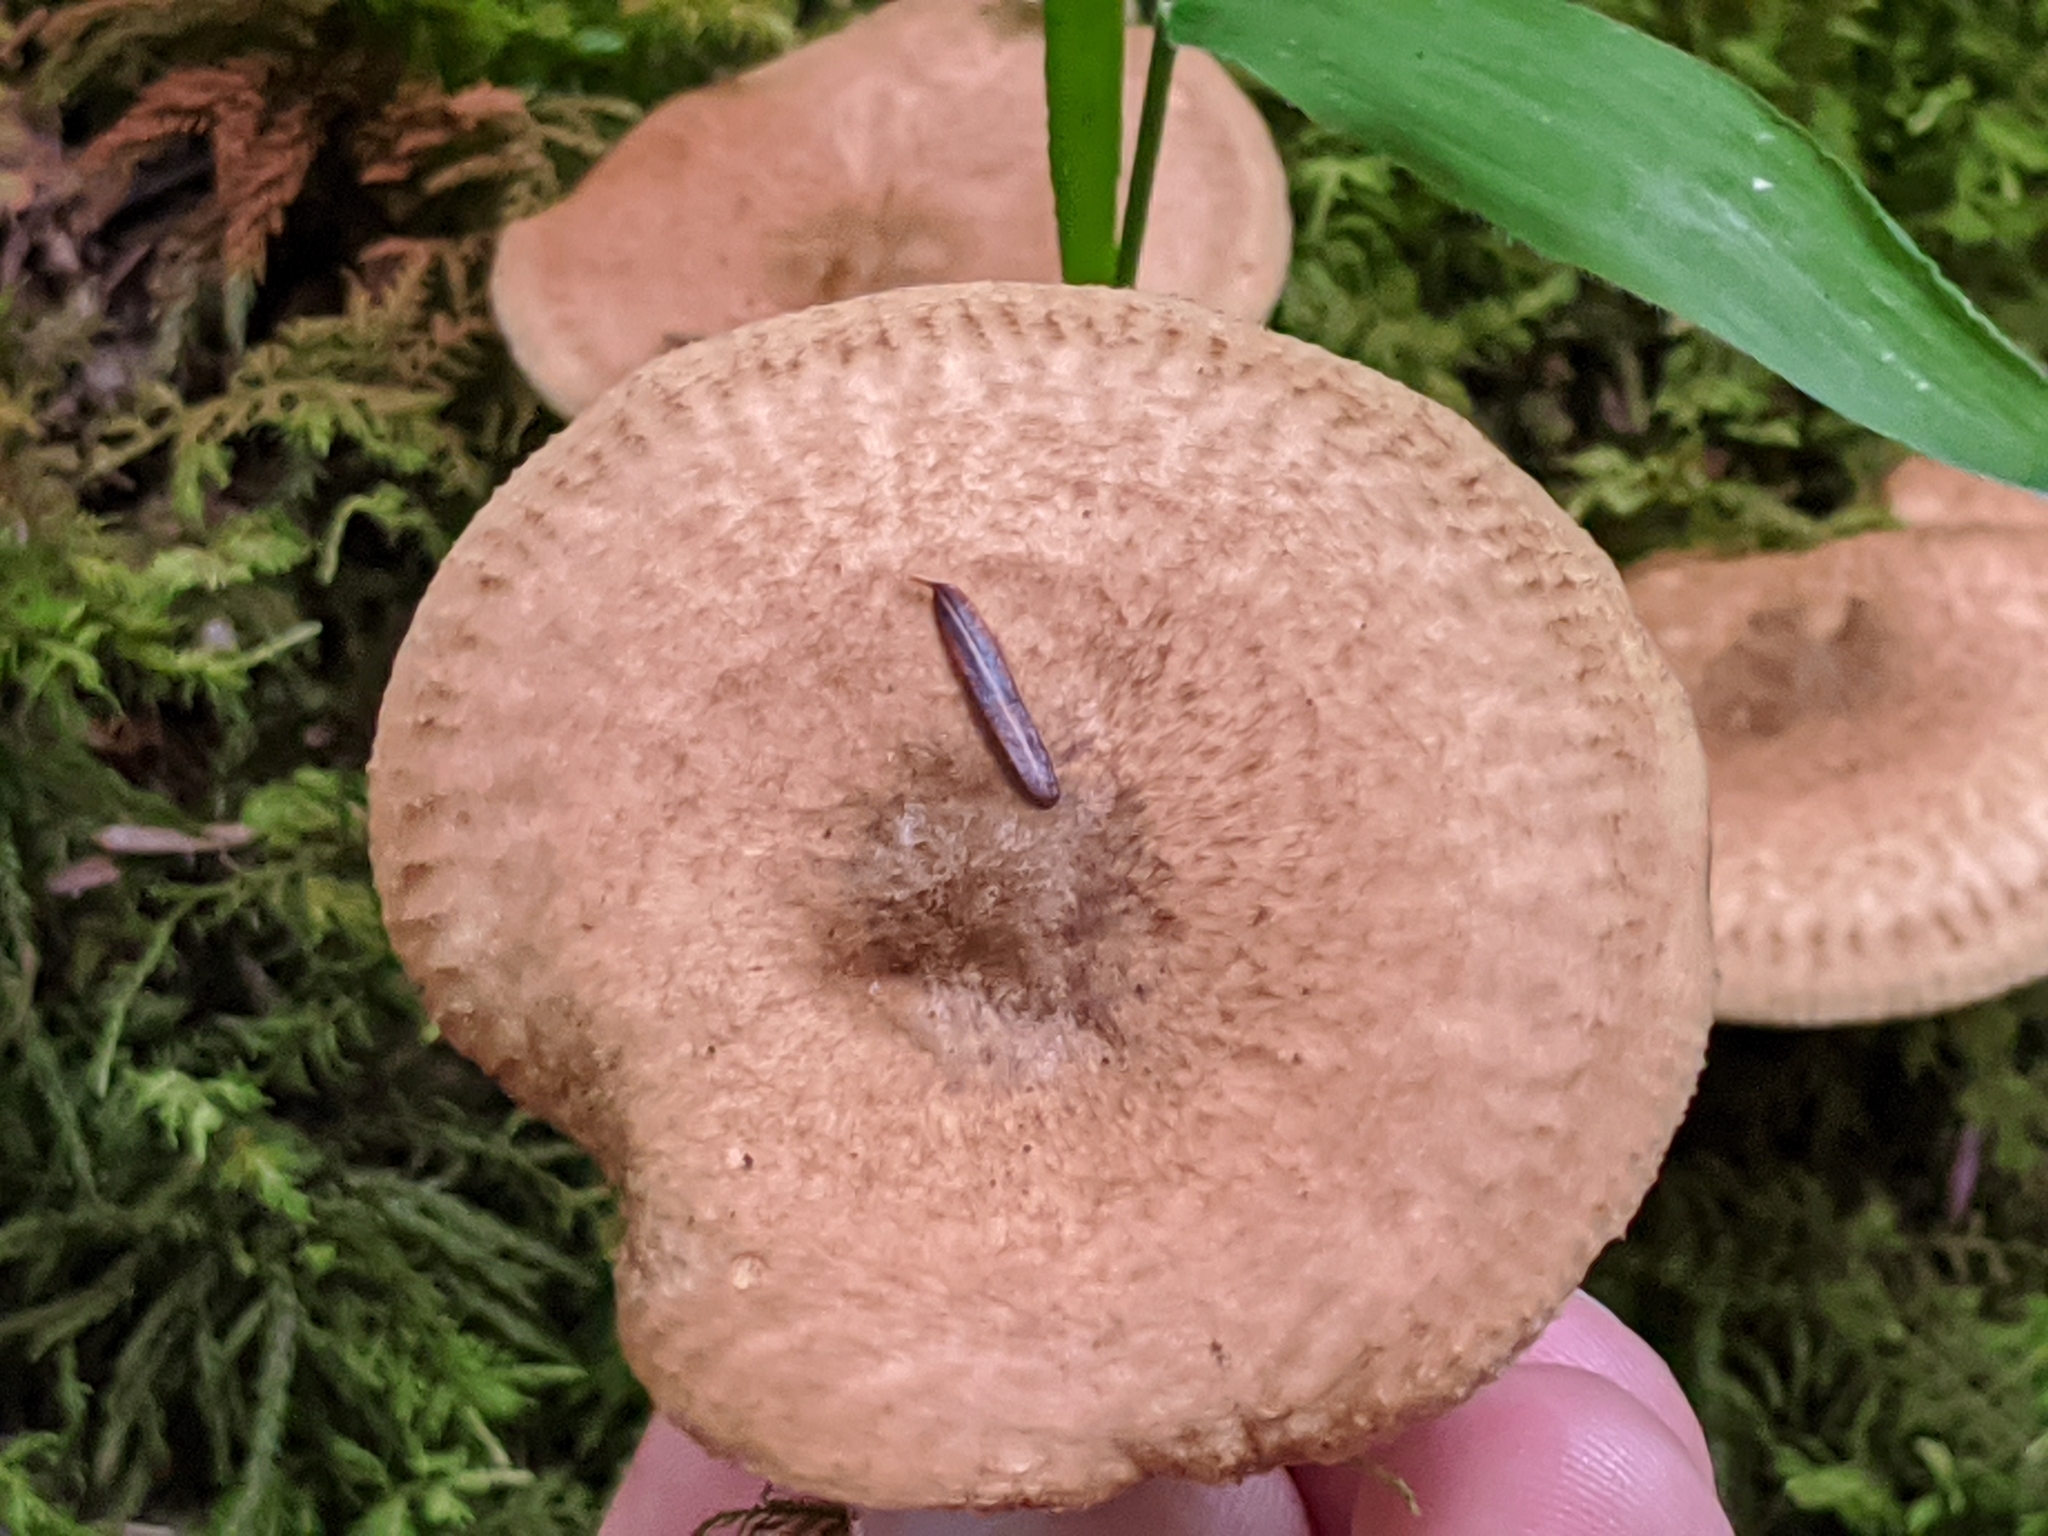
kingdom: Fungi
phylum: Basidiomycota
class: Agaricomycetes
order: Boletales
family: Paxillaceae
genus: Paxillus
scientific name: Paxillus involutus
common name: Brown roll rim
